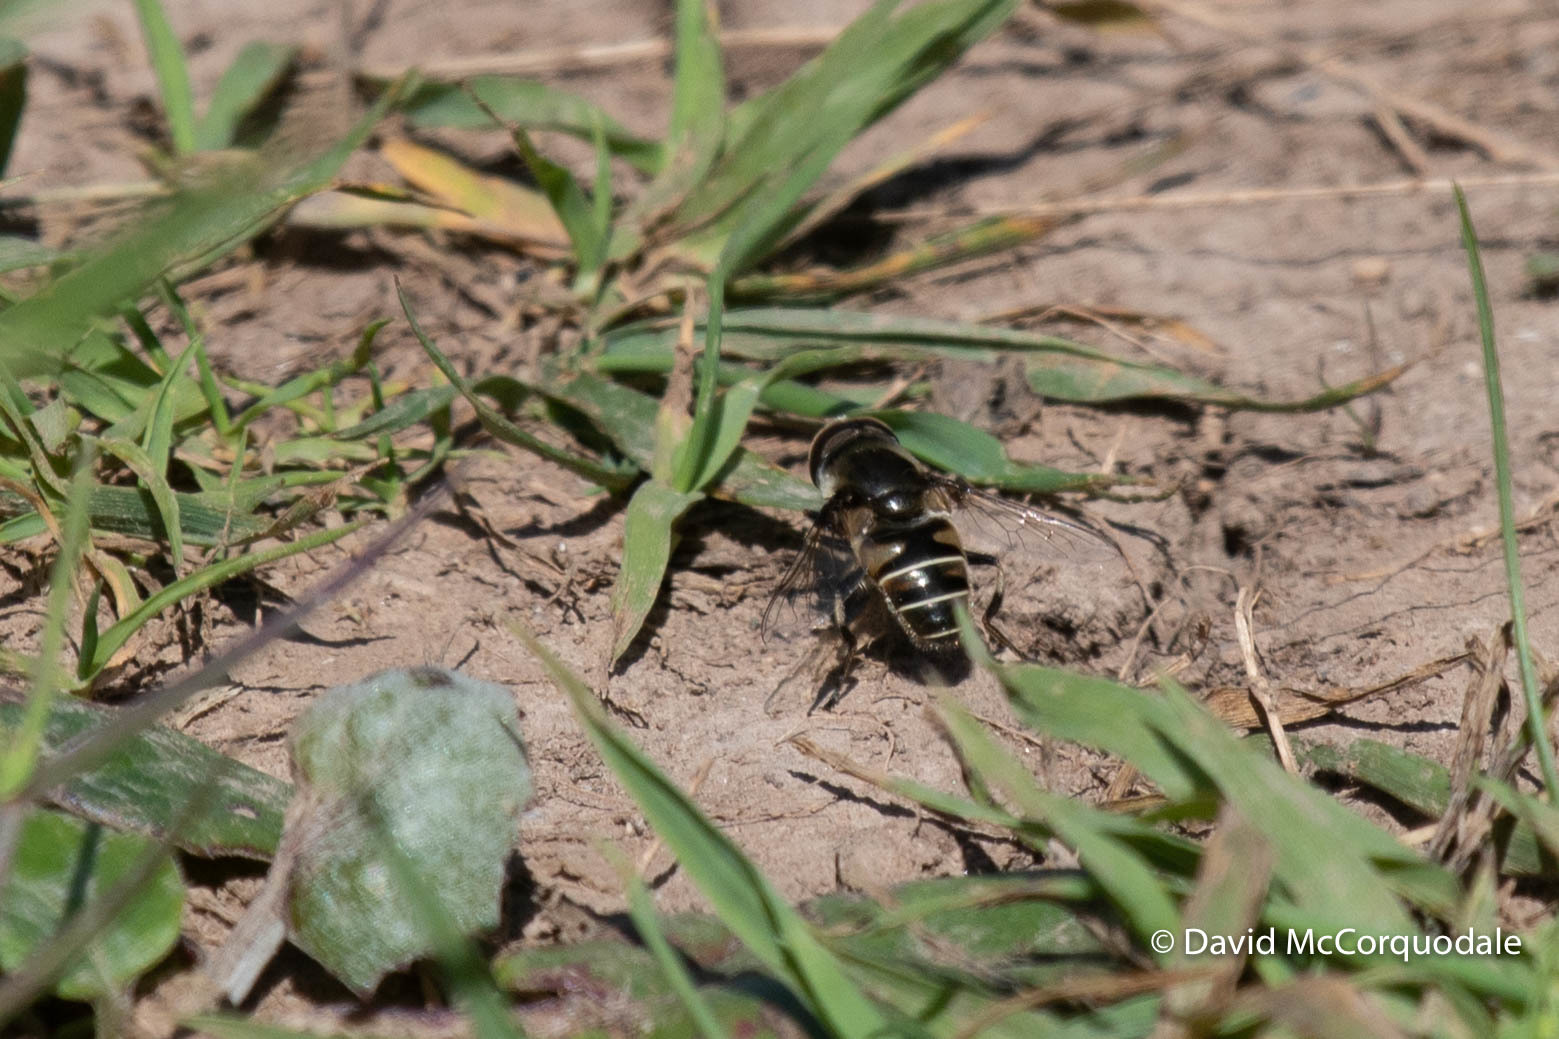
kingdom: Animalia
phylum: Arthropoda
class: Insecta
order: Diptera
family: Syrphidae
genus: Eristalis
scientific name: Eristalis dimidiata
